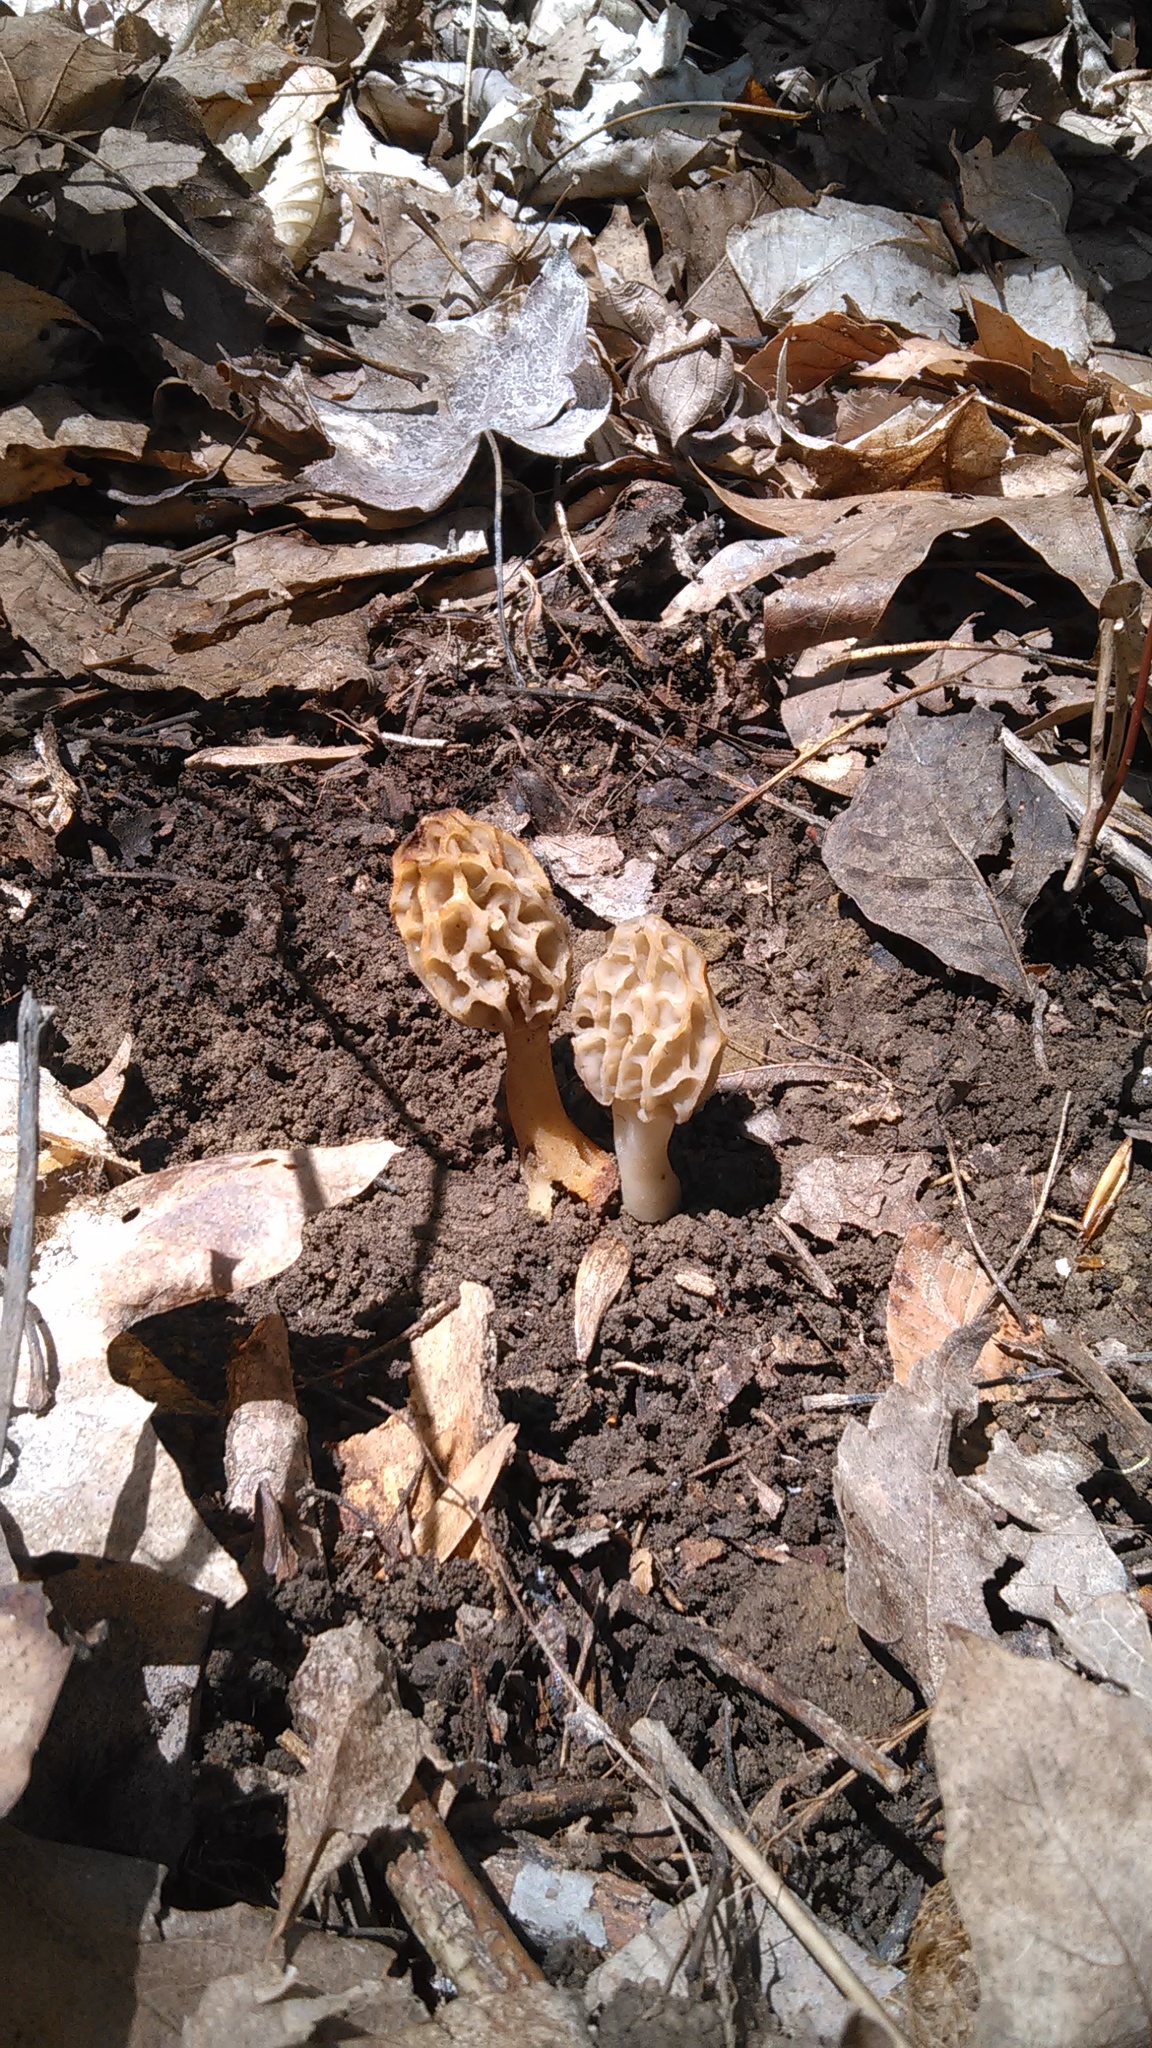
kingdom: Fungi
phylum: Ascomycota
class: Pezizomycetes
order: Pezizales
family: Morchellaceae
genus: Morchella
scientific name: Morchella diminutiva
